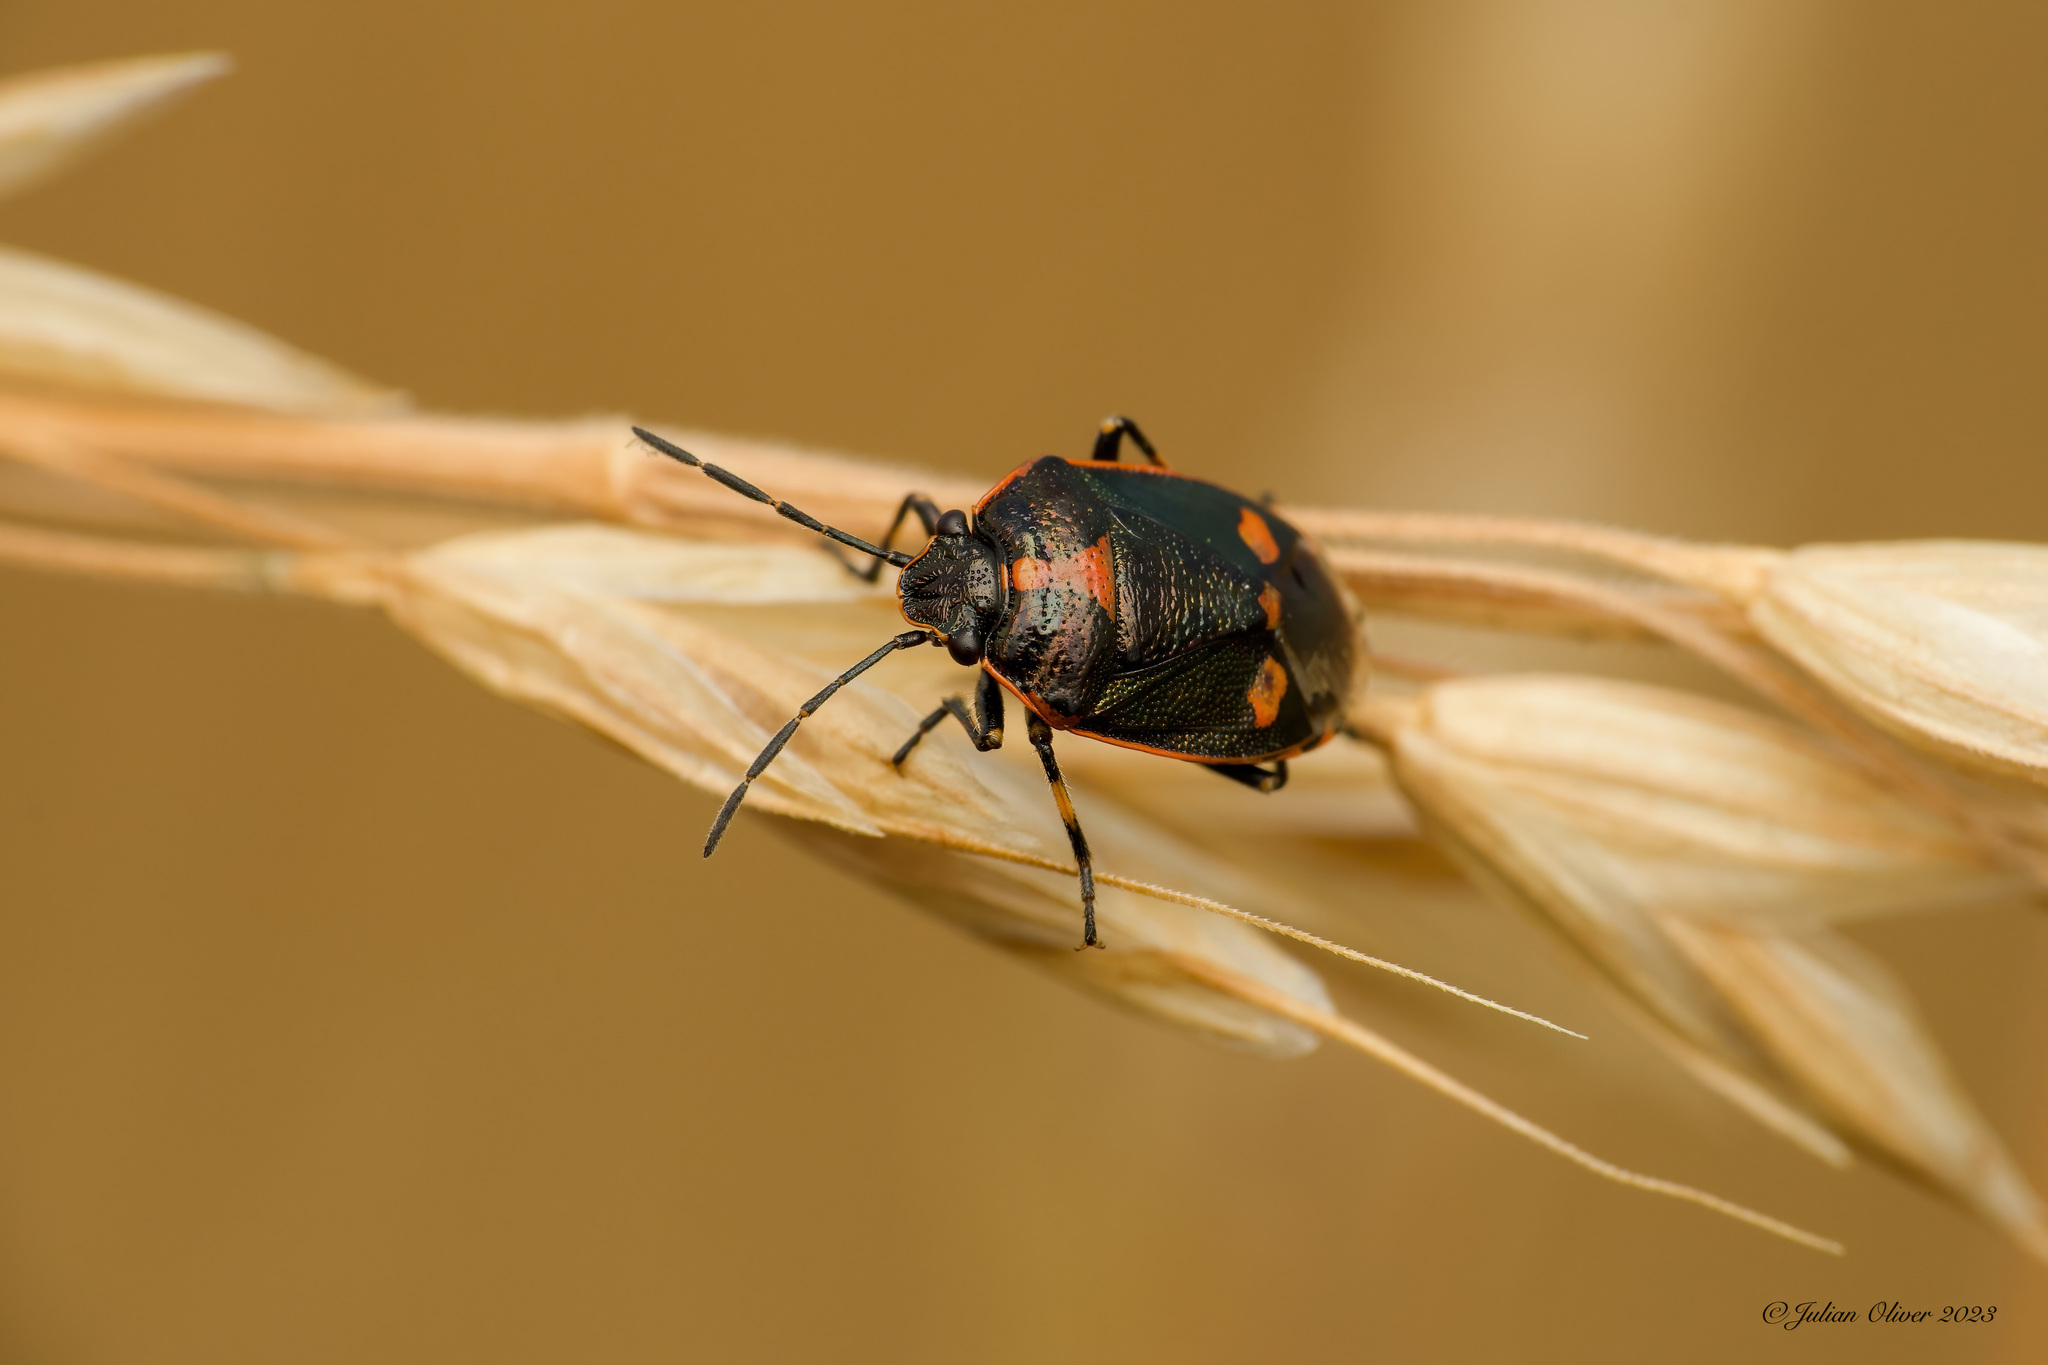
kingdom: Animalia
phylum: Arthropoda
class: Insecta
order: Hemiptera
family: Pentatomidae
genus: Eurydema
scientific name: Eurydema oleracea
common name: Cabbage bug
